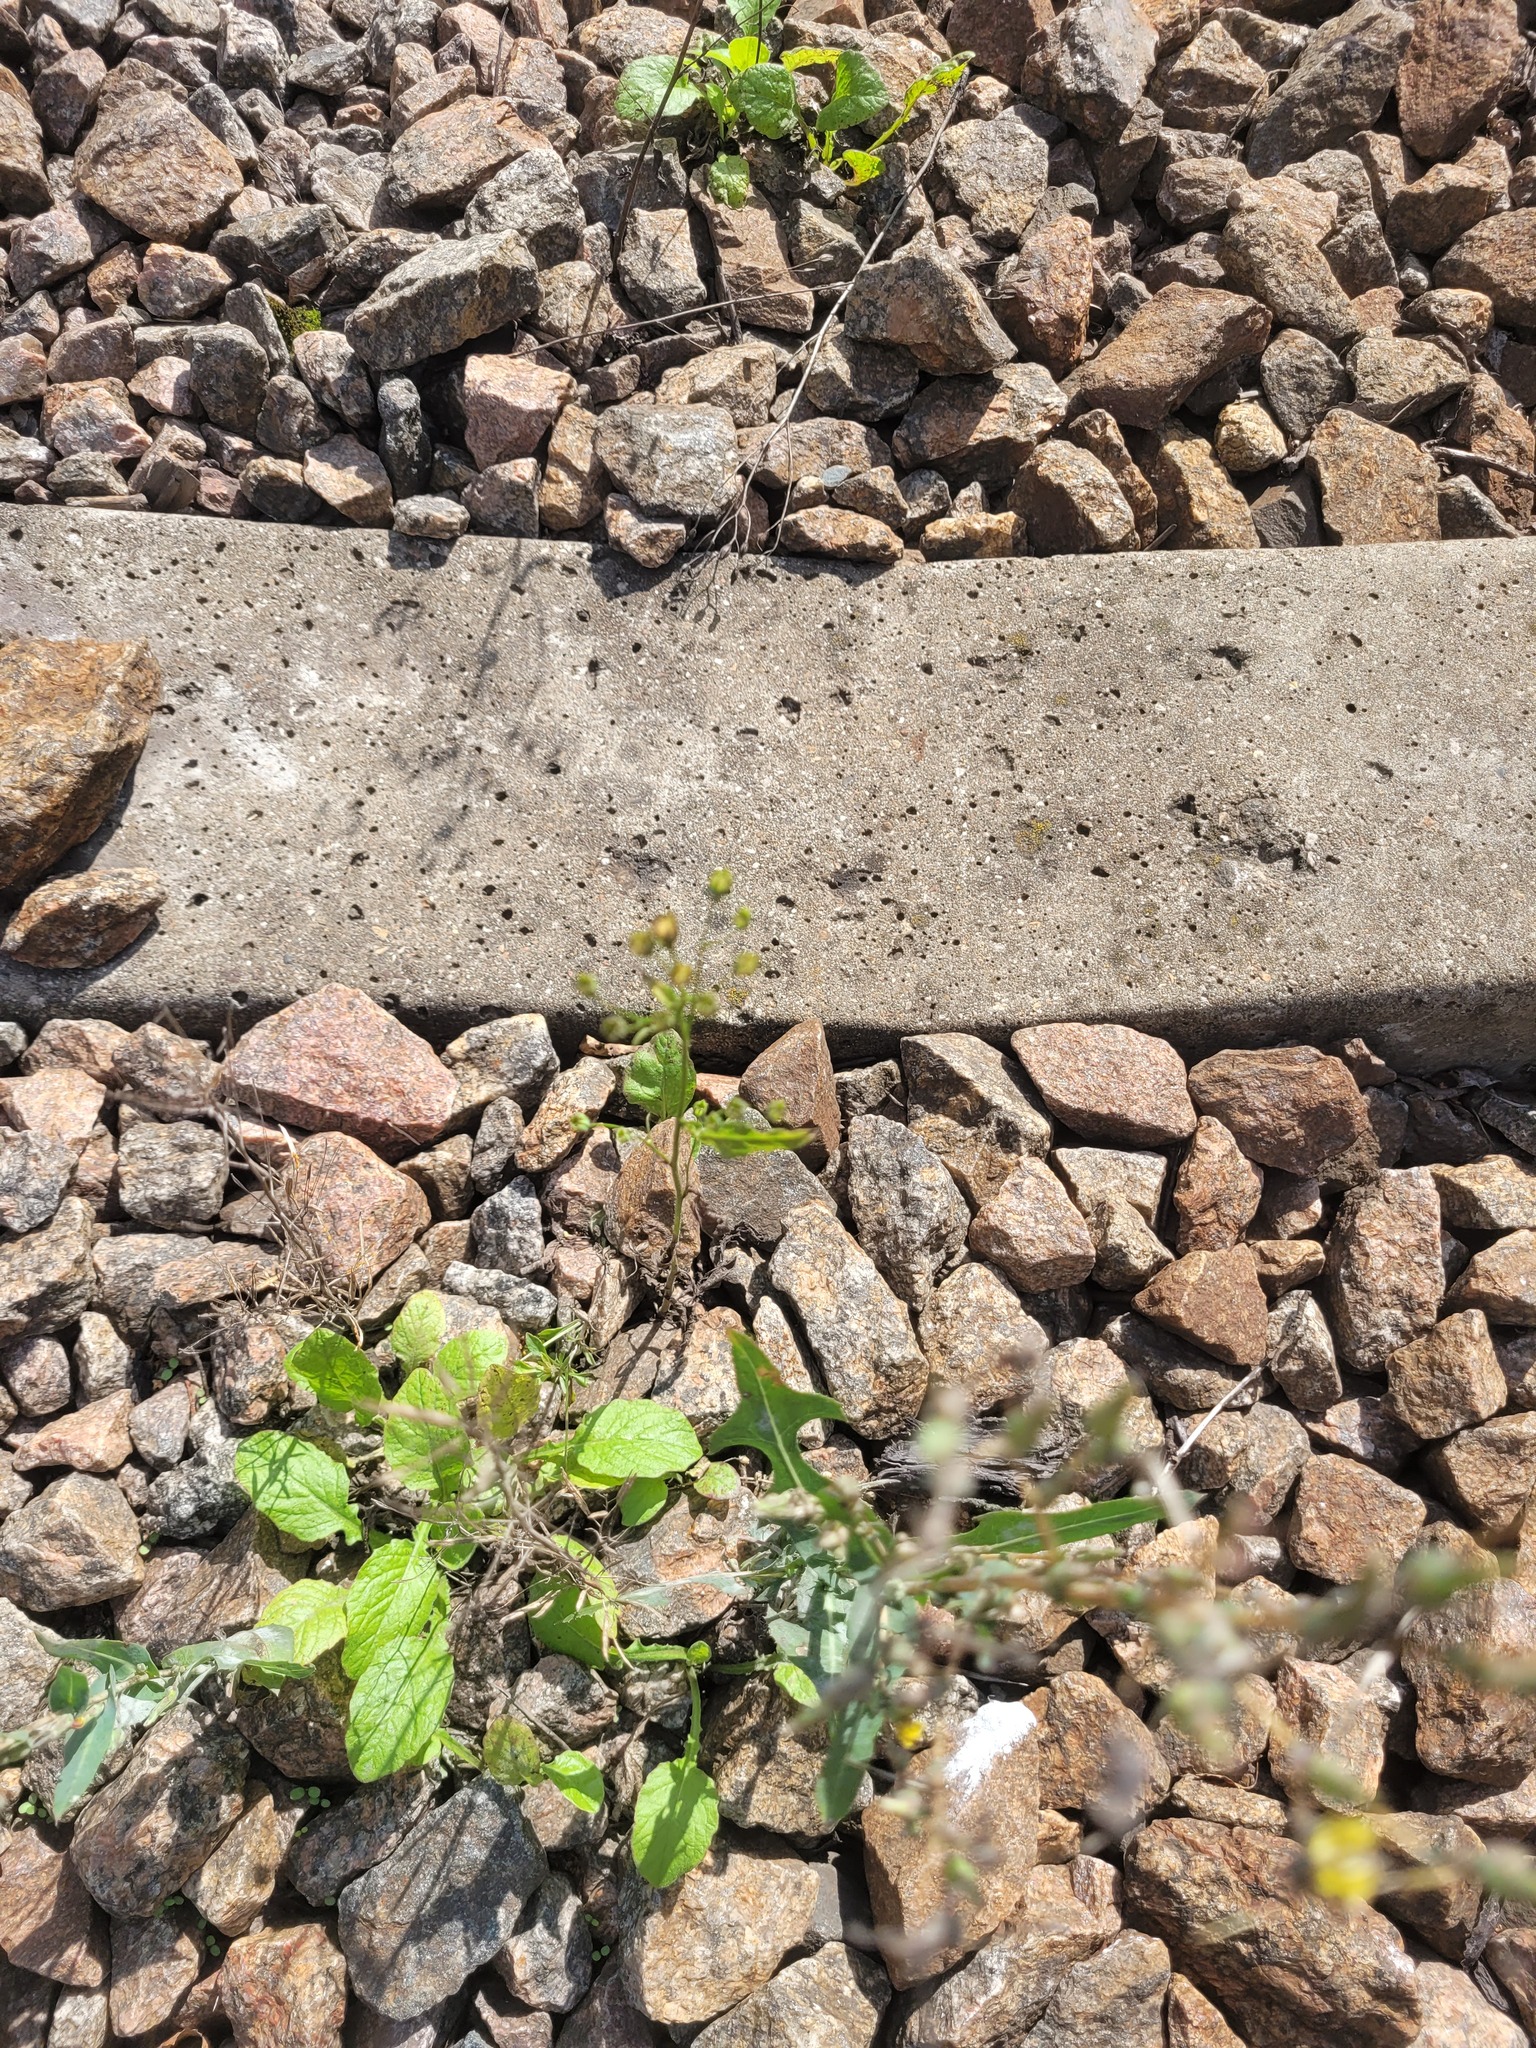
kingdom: Plantae
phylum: Tracheophyta
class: Magnoliopsida
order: Asterales
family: Asteraceae
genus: Lapsana
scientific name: Lapsana communis
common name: Nipplewort
